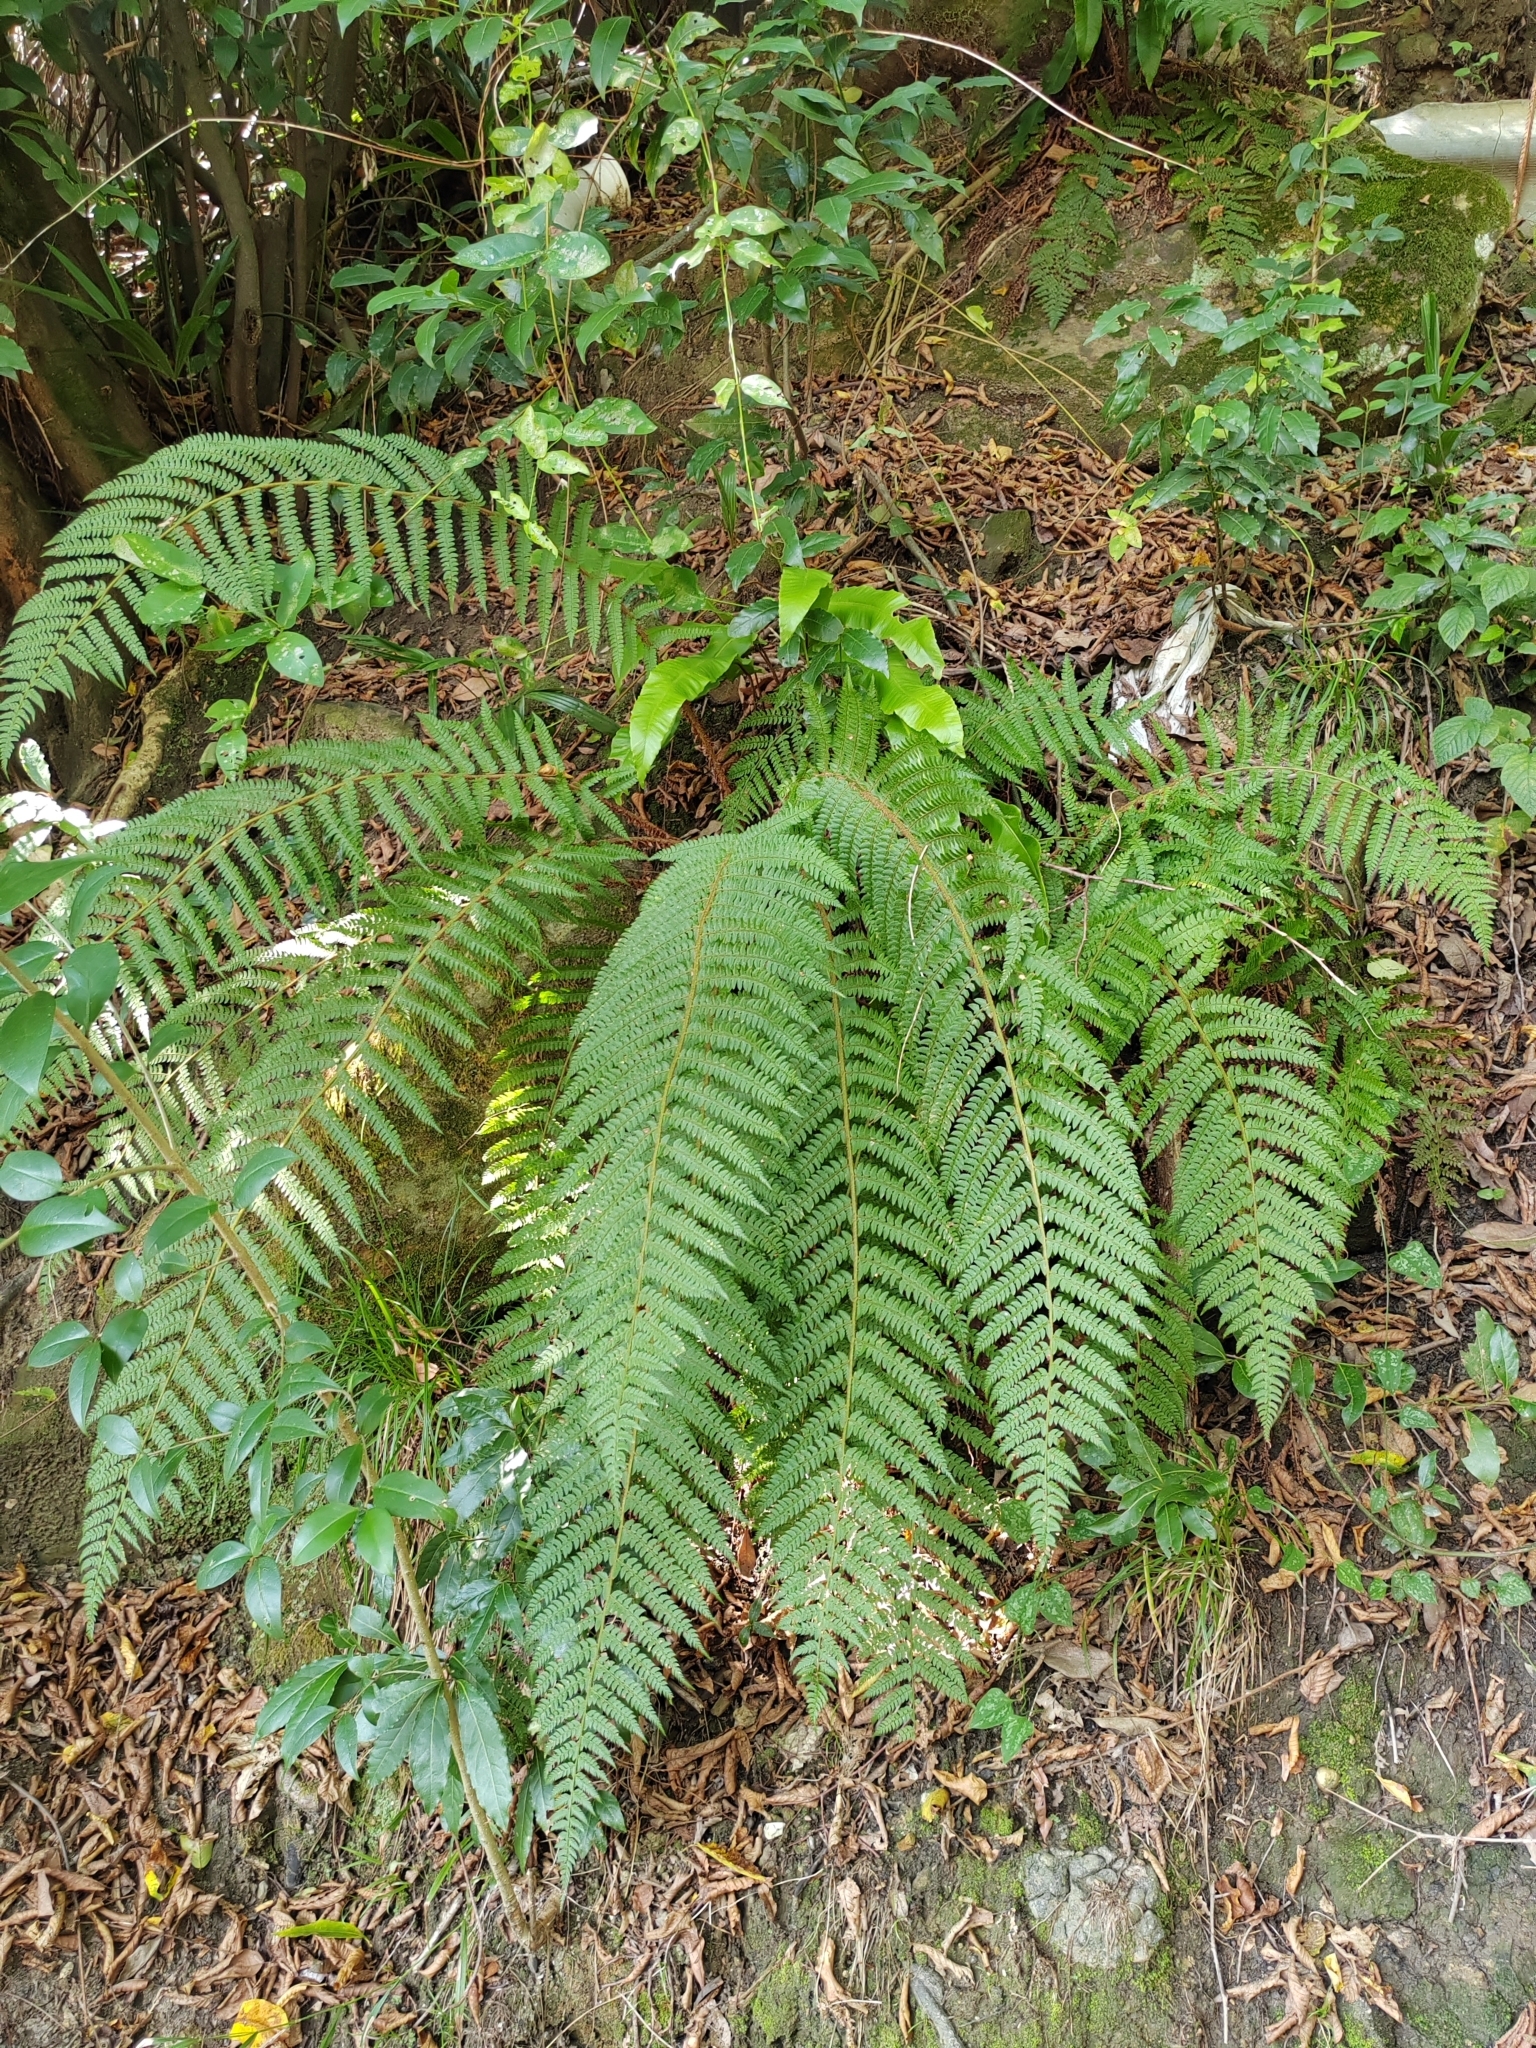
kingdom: Plantae
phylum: Tracheophyta
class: Polypodiopsida
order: Polypodiales
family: Dryopteridaceae
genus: Polystichum
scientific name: Polystichum setiferum
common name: Soft shield-fern
